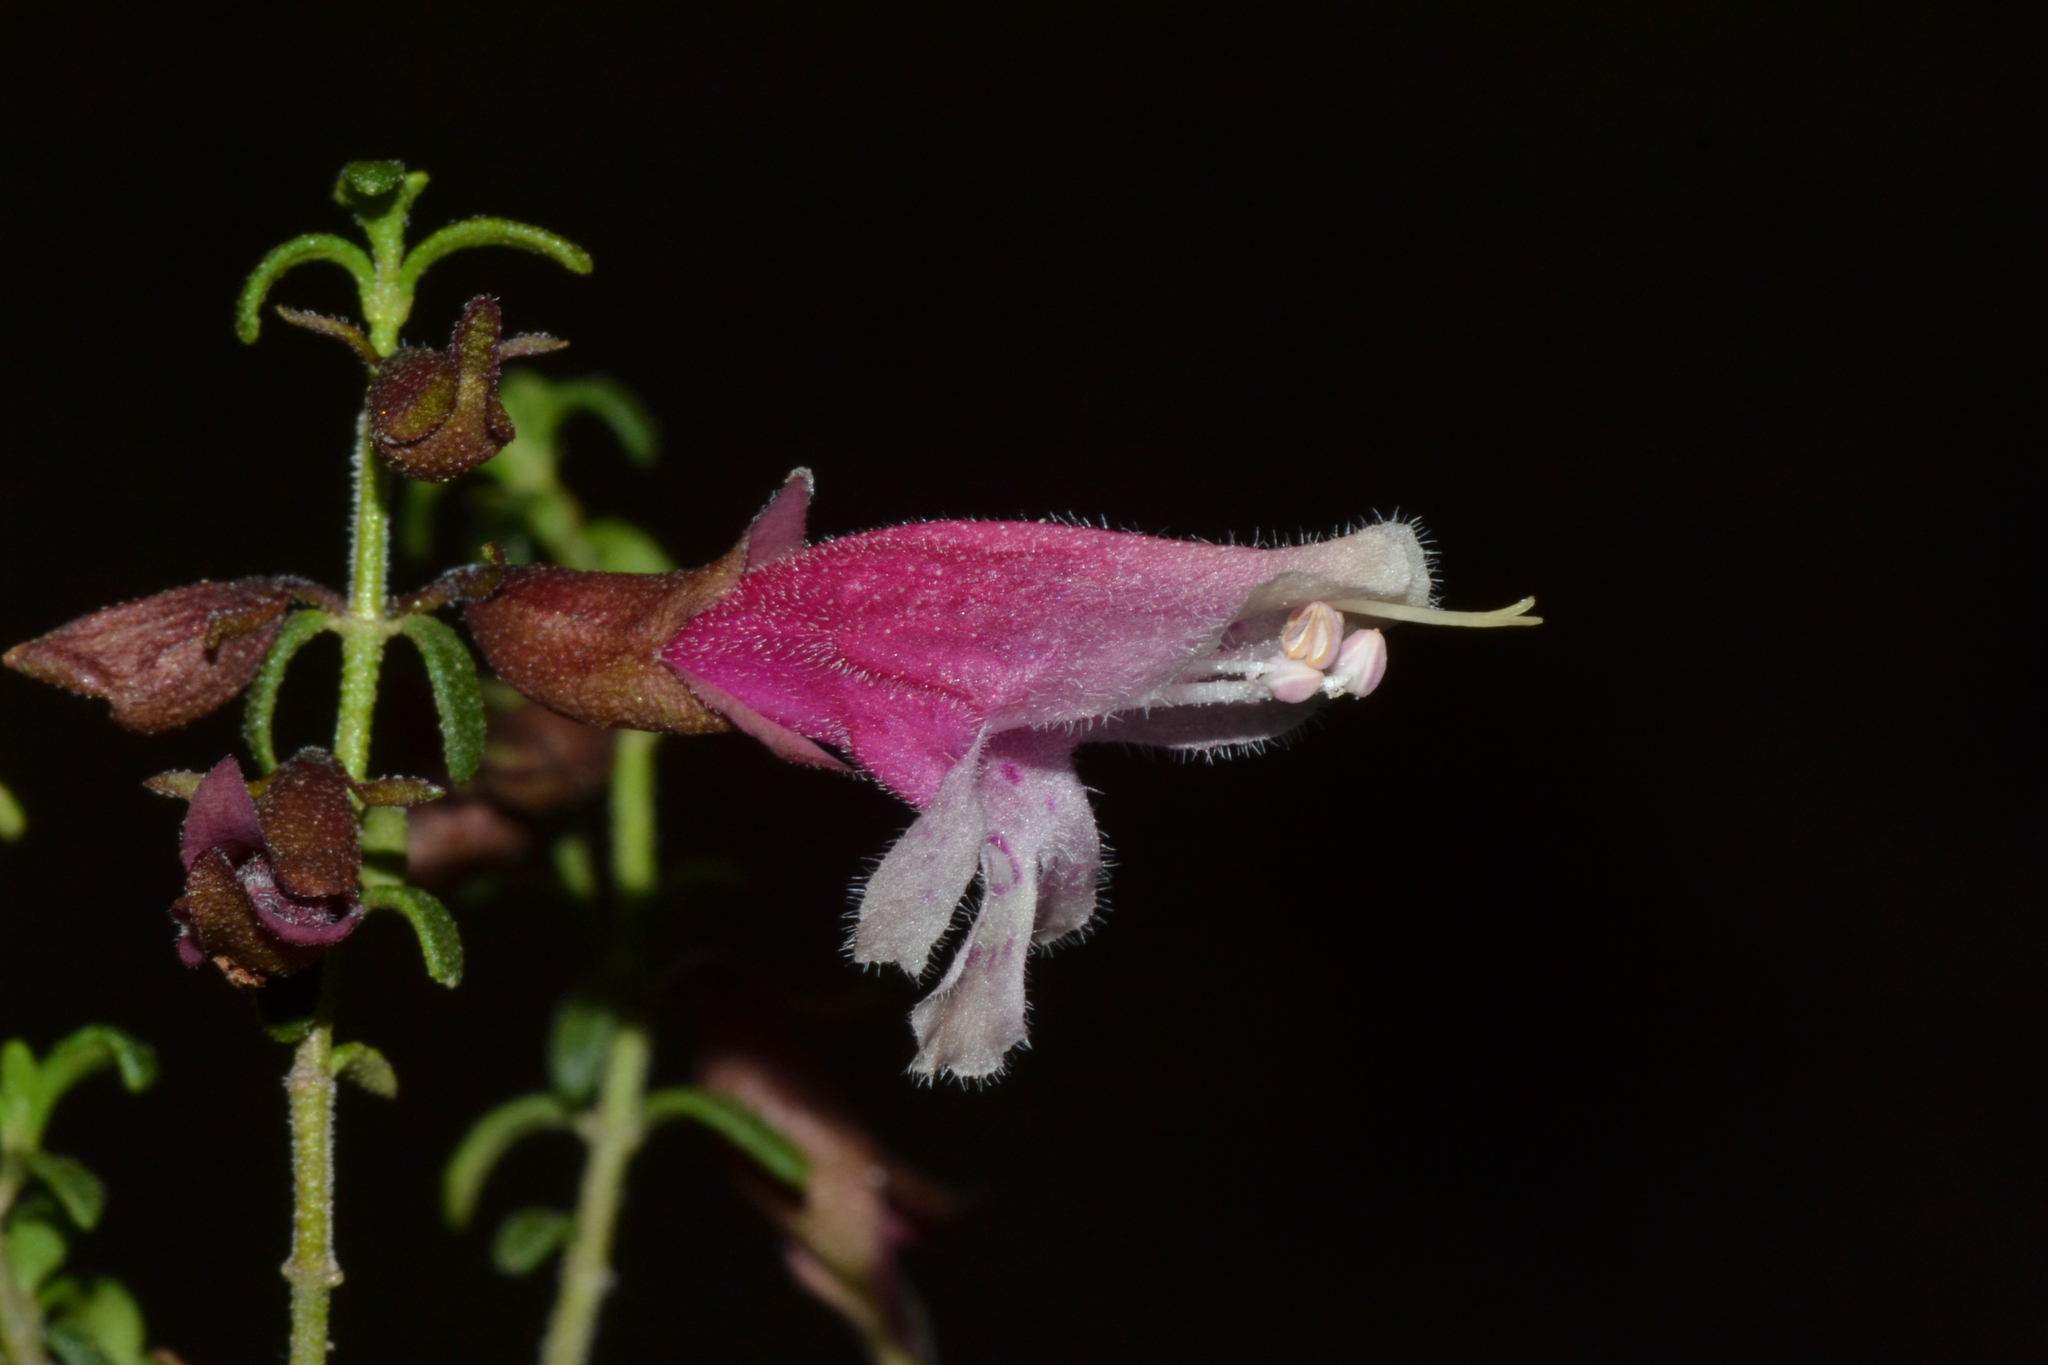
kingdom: Plantae
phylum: Tracheophyta
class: Magnoliopsida
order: Lamiales
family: Lamiaceae
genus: Prostanthera
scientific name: Prostanthera serpyllifolia
